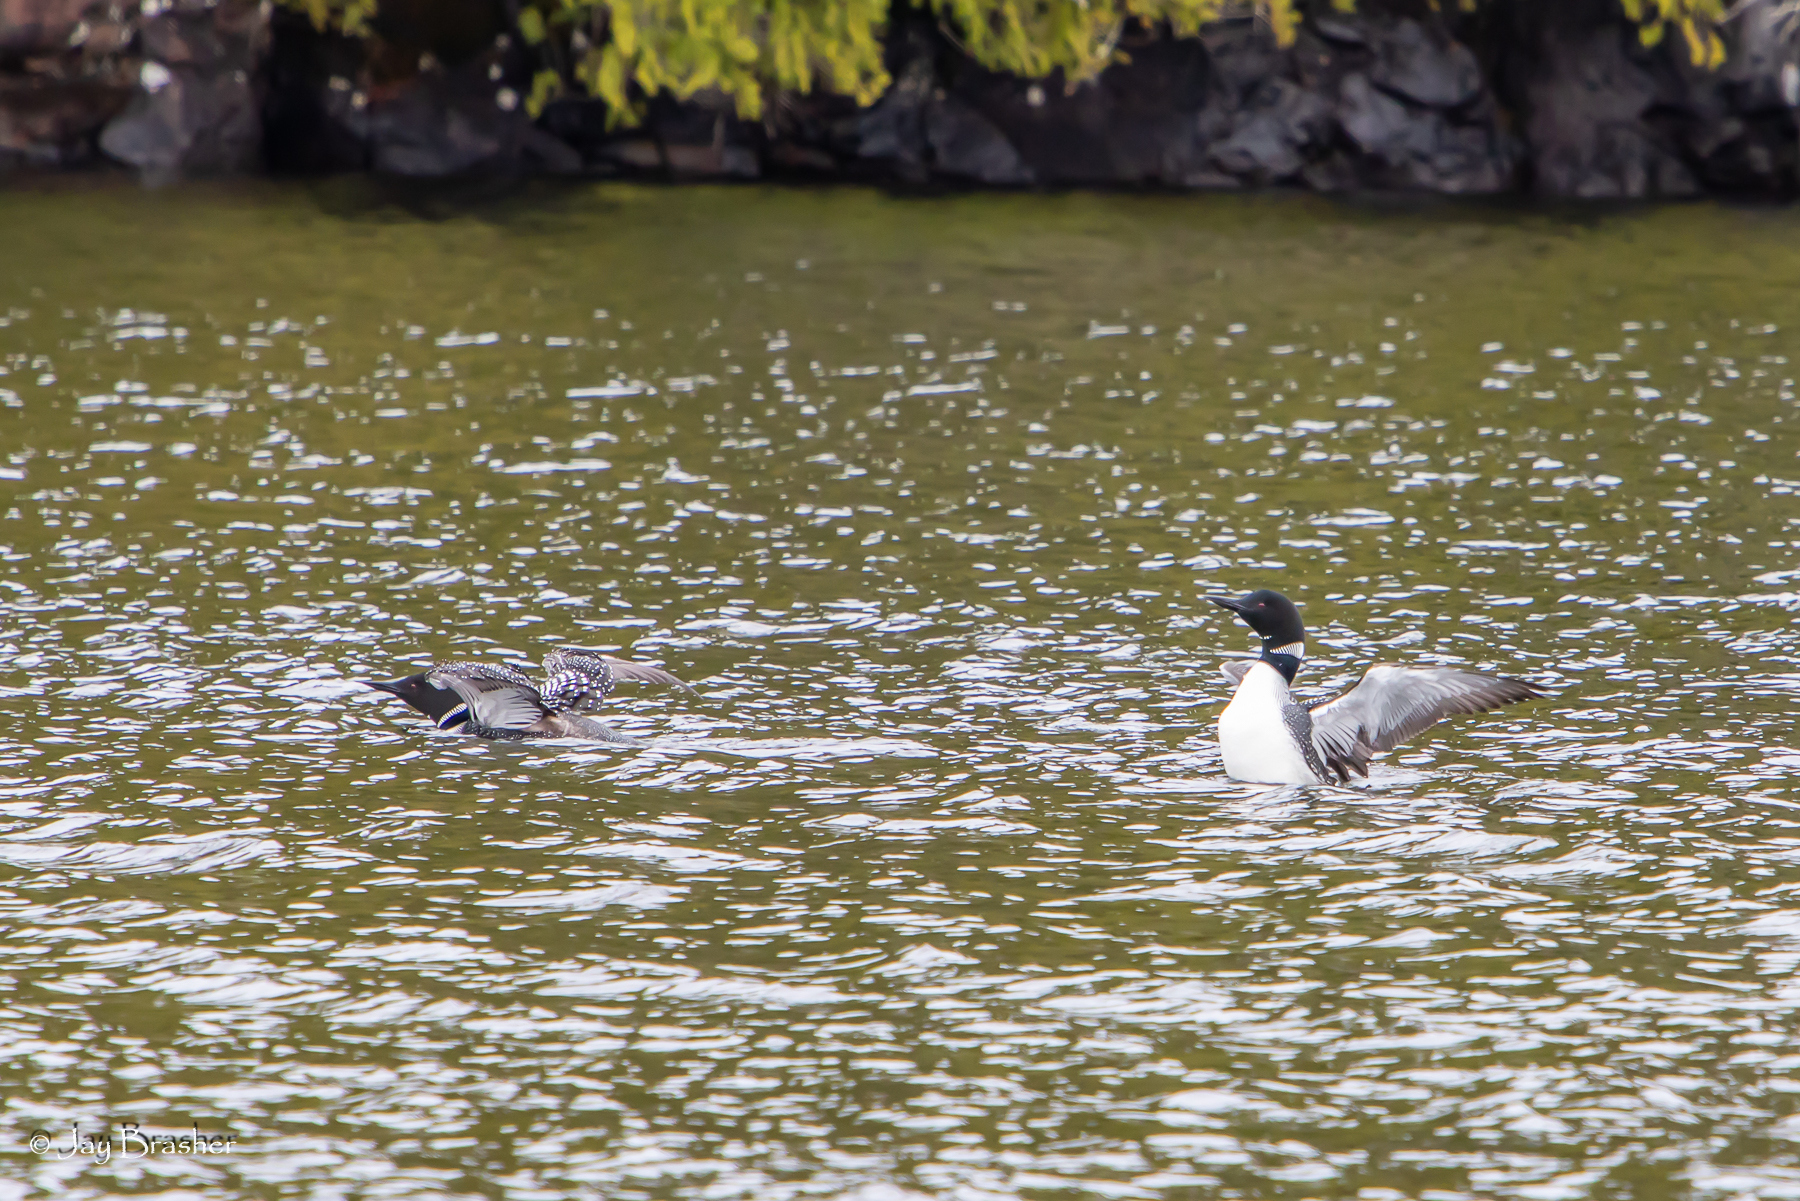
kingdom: Animalia
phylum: Chordata
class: Aves
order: Gaviiformes
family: Gaviidae
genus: Gavia
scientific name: Gavia immer
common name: Common loon
